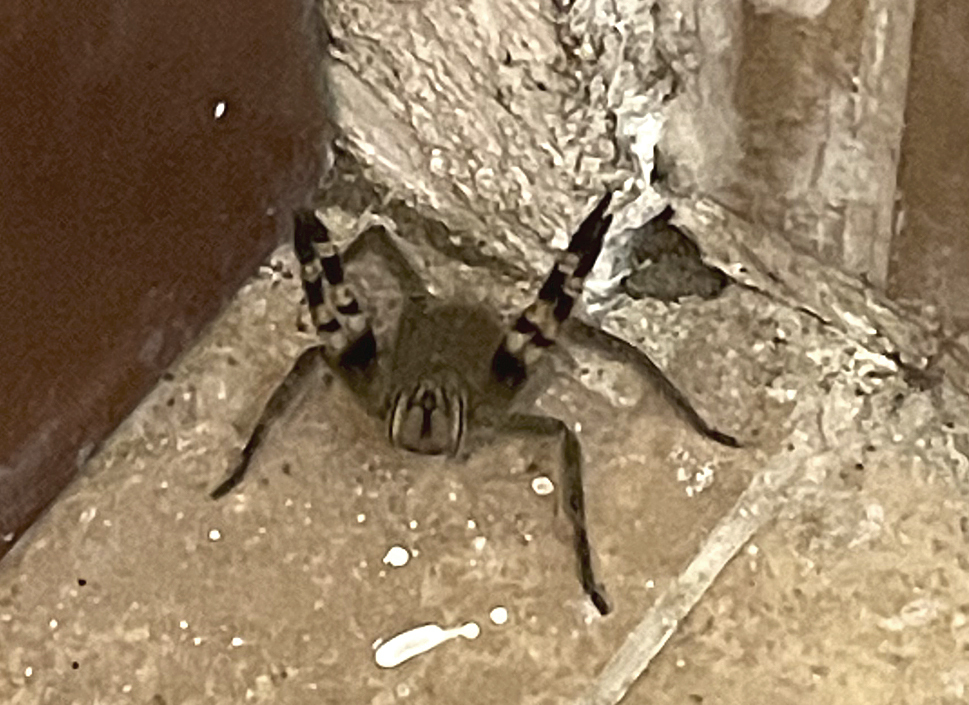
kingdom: Animalia
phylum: Arthropoda
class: Arachnida
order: Araneae
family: Ctenidae
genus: Phoneutria
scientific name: Phoneutria fera
